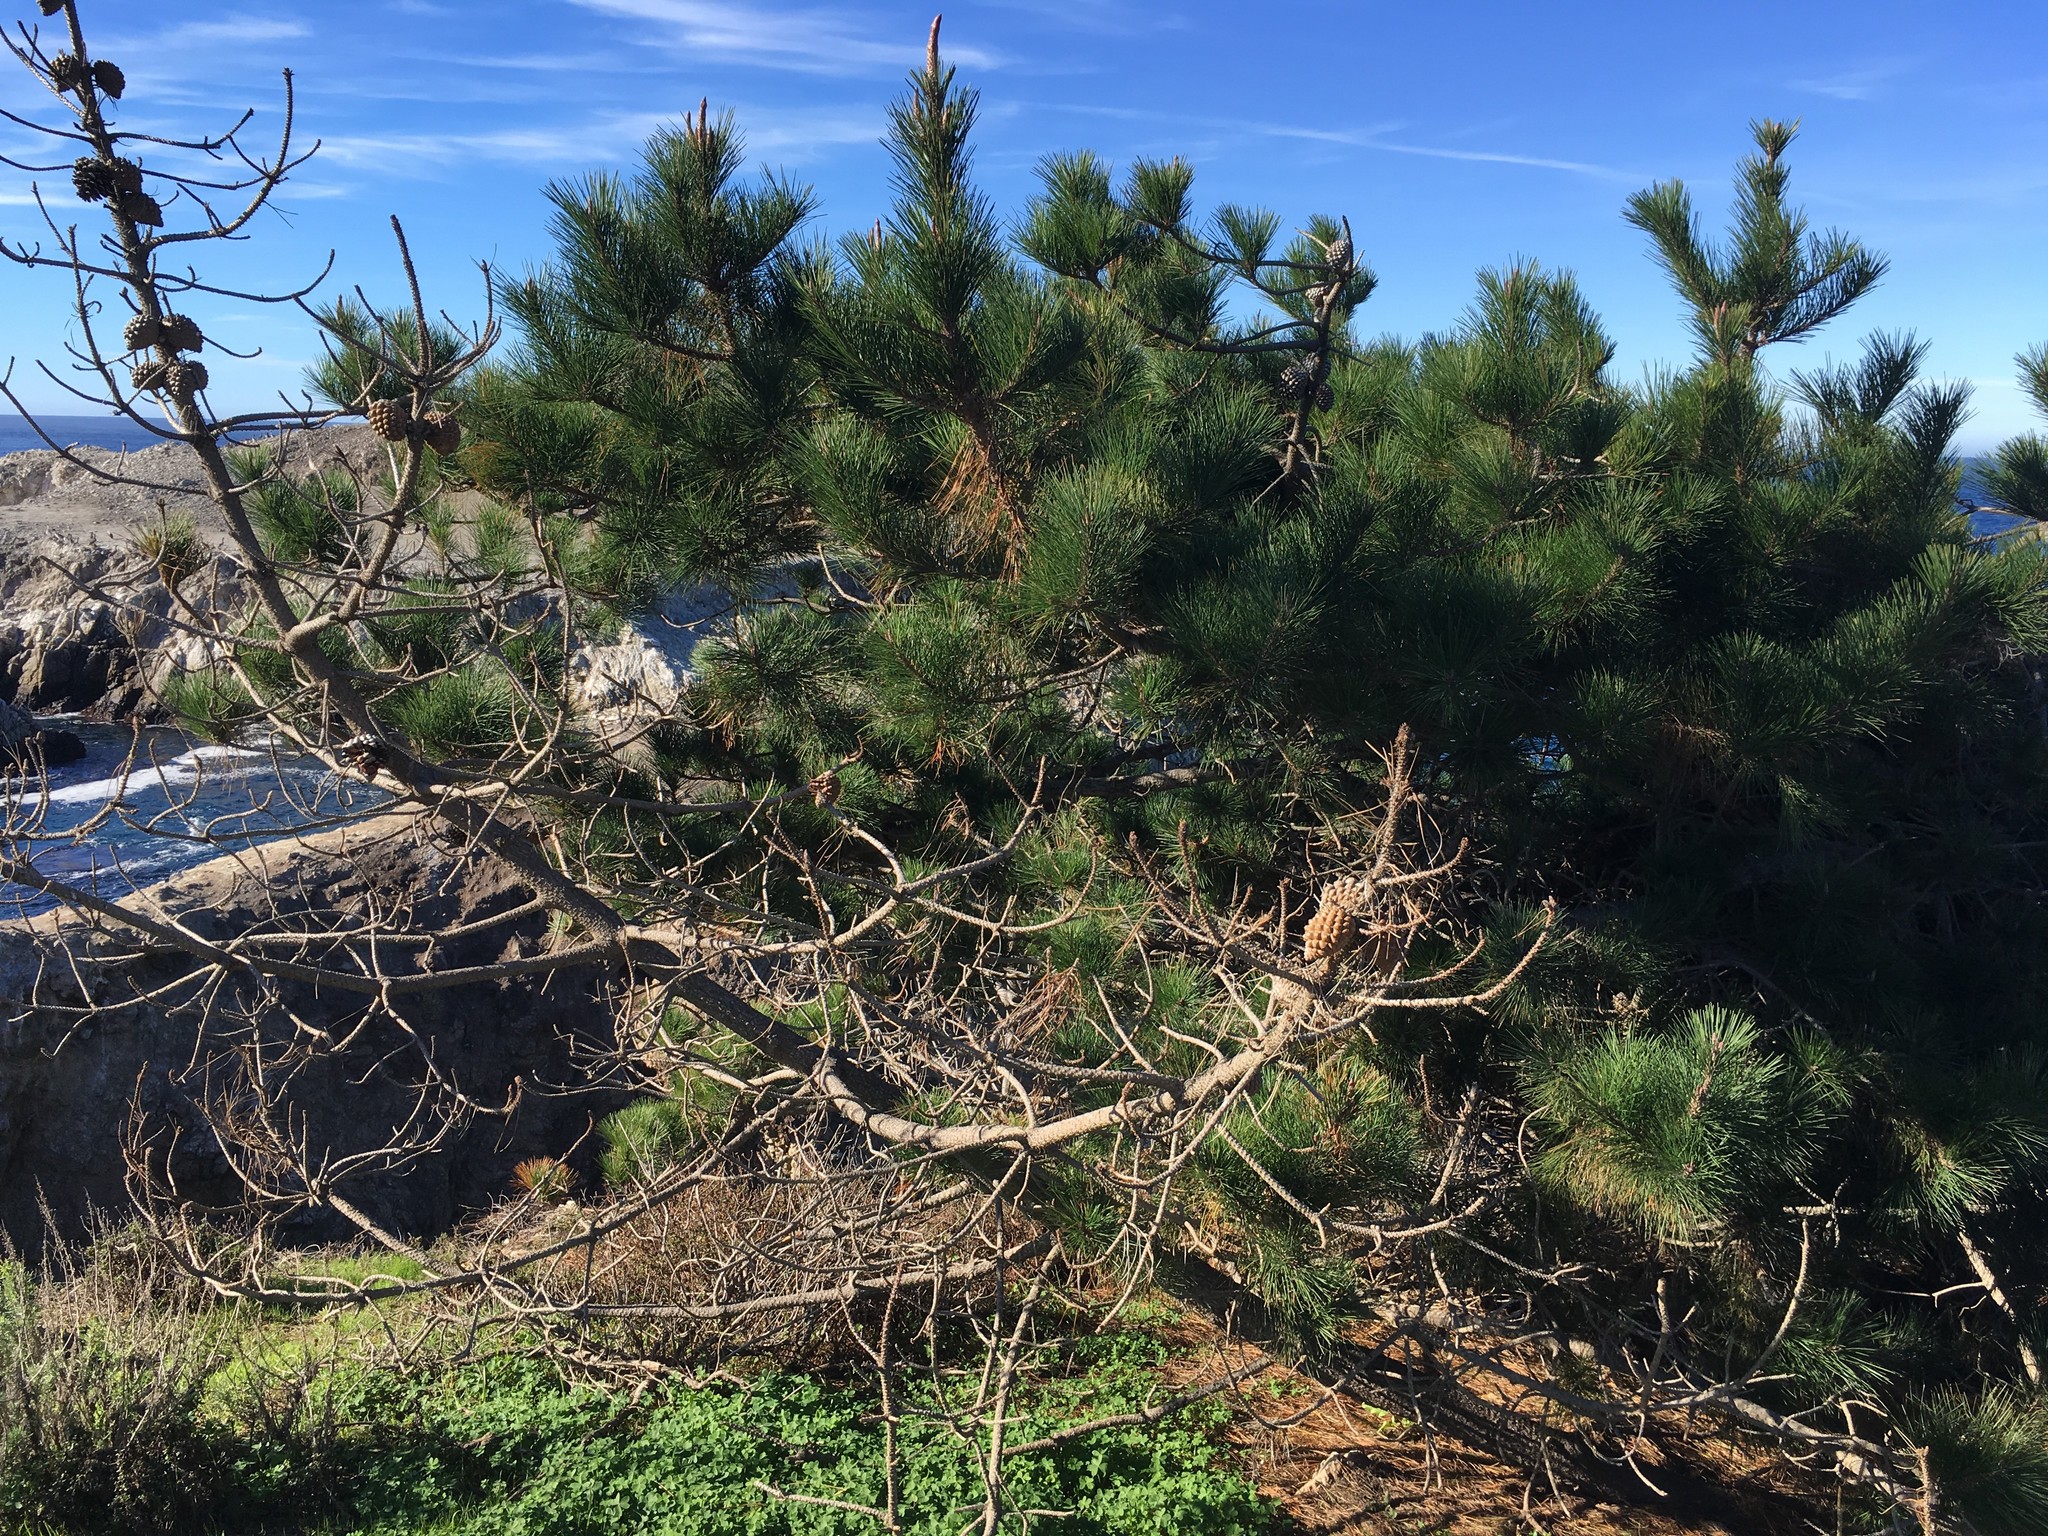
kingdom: Plantae
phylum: Tracheophyta
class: Pinopsida
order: Pinales
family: Pinaceae
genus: Pinus
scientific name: Pinus radiata
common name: Monterey pine
